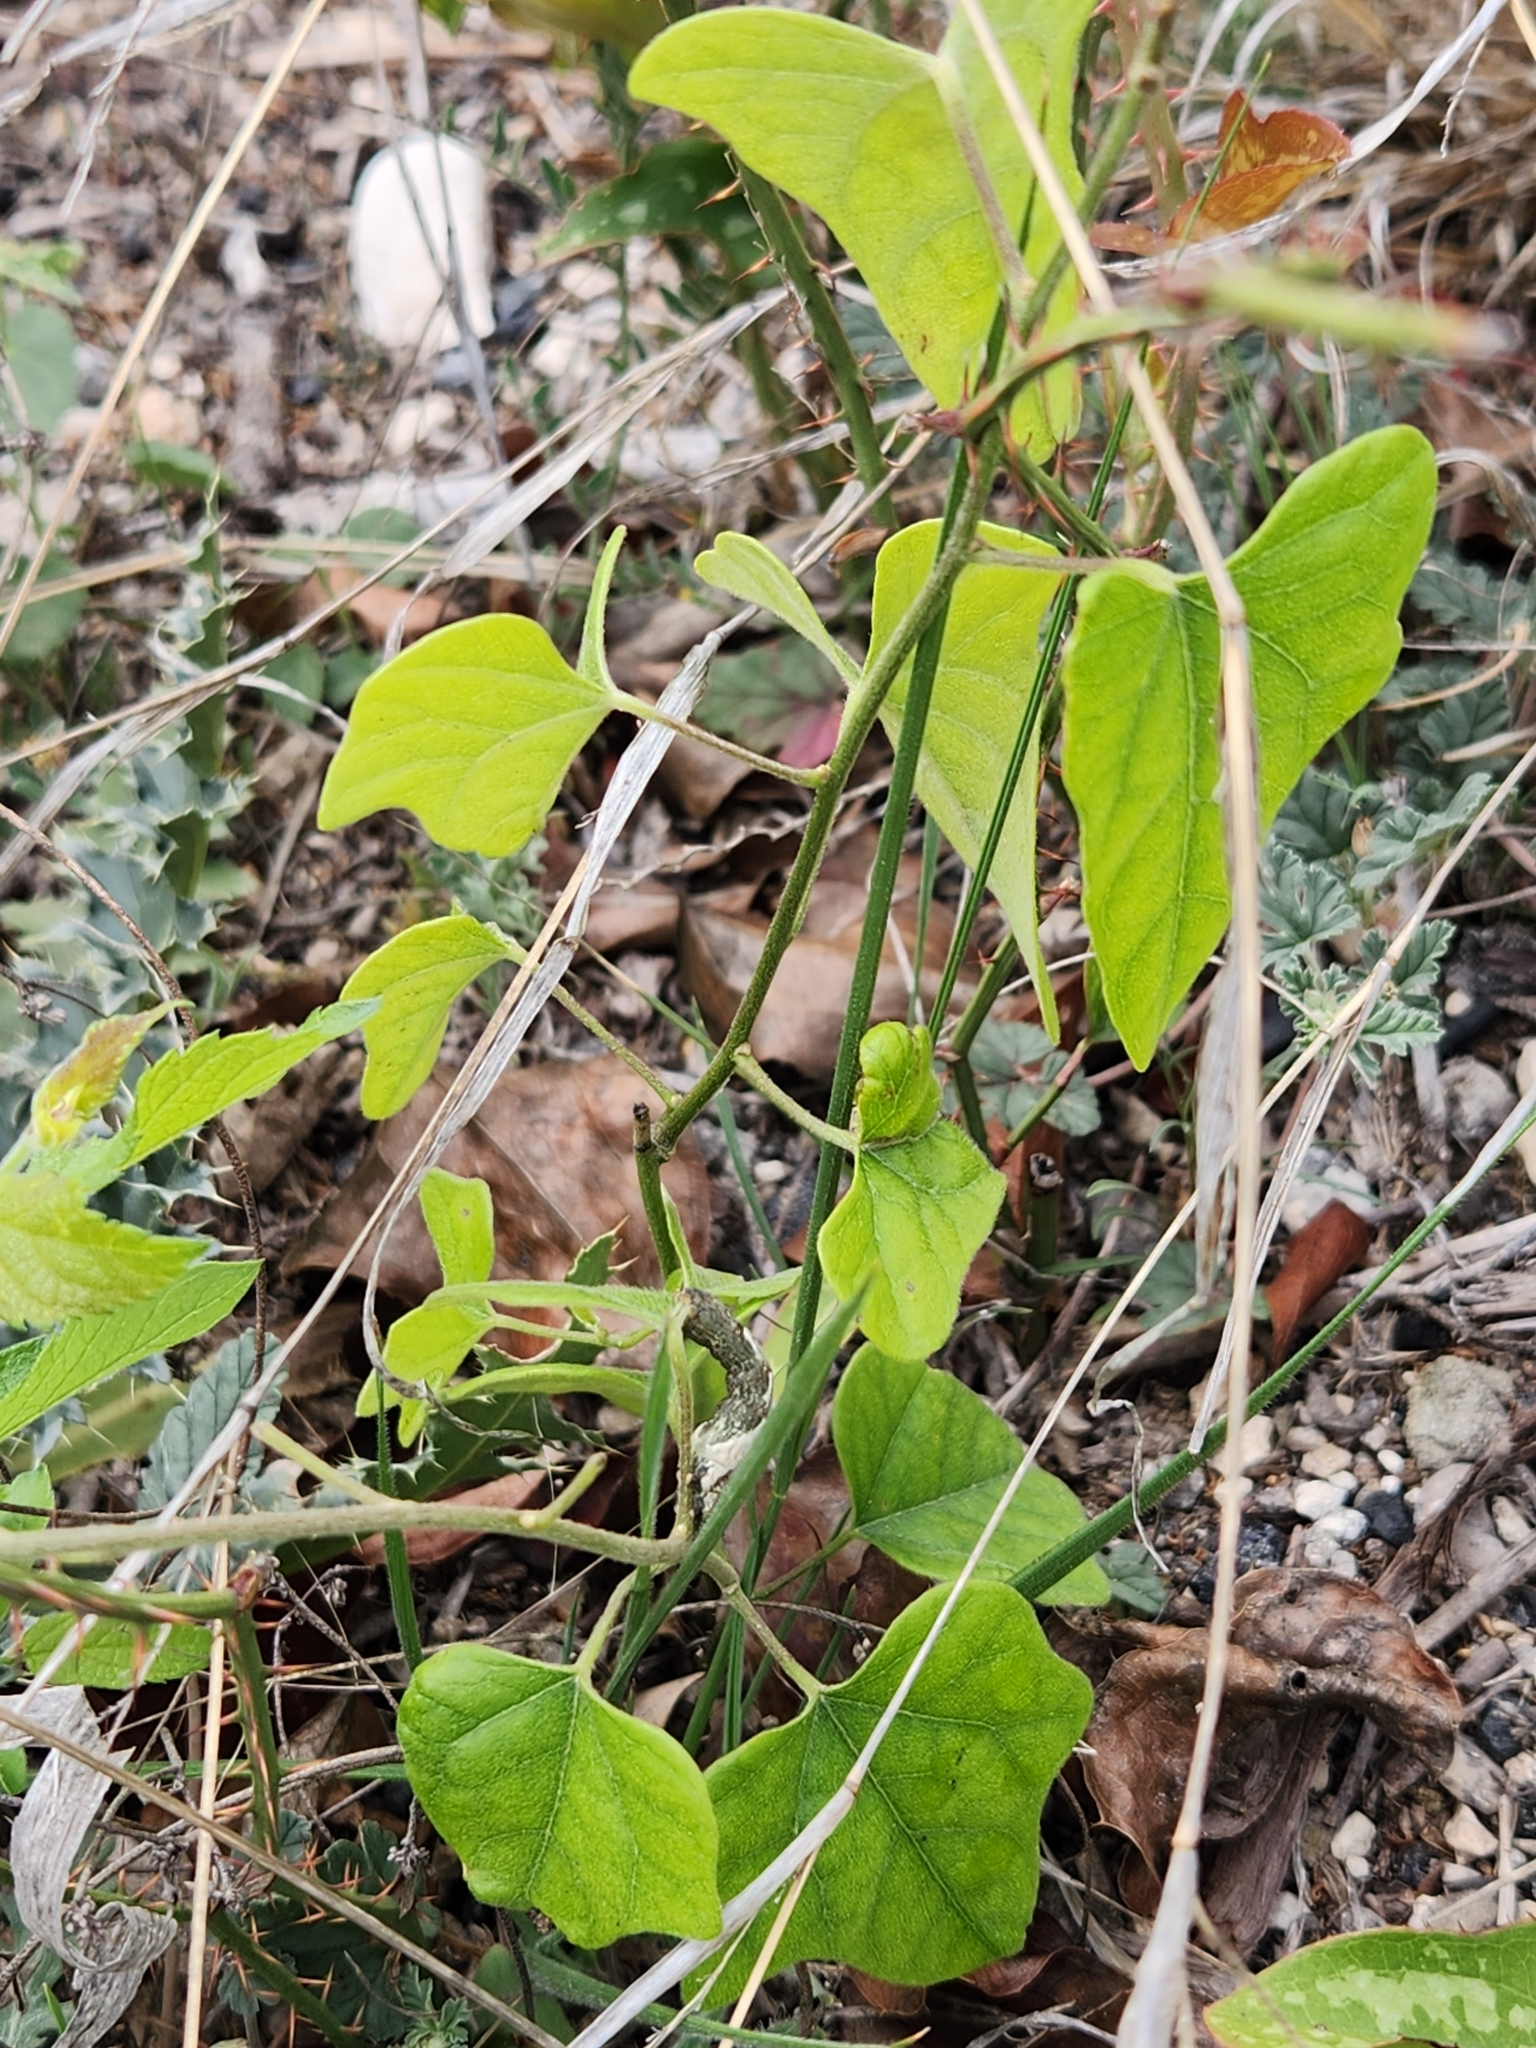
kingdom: Plantae
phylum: Tracheophyta
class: Magnoliopsida
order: Ranunculales
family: Menispermaceae
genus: Cocculus
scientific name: Cocculus carolinus
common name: Carolina moonseed
